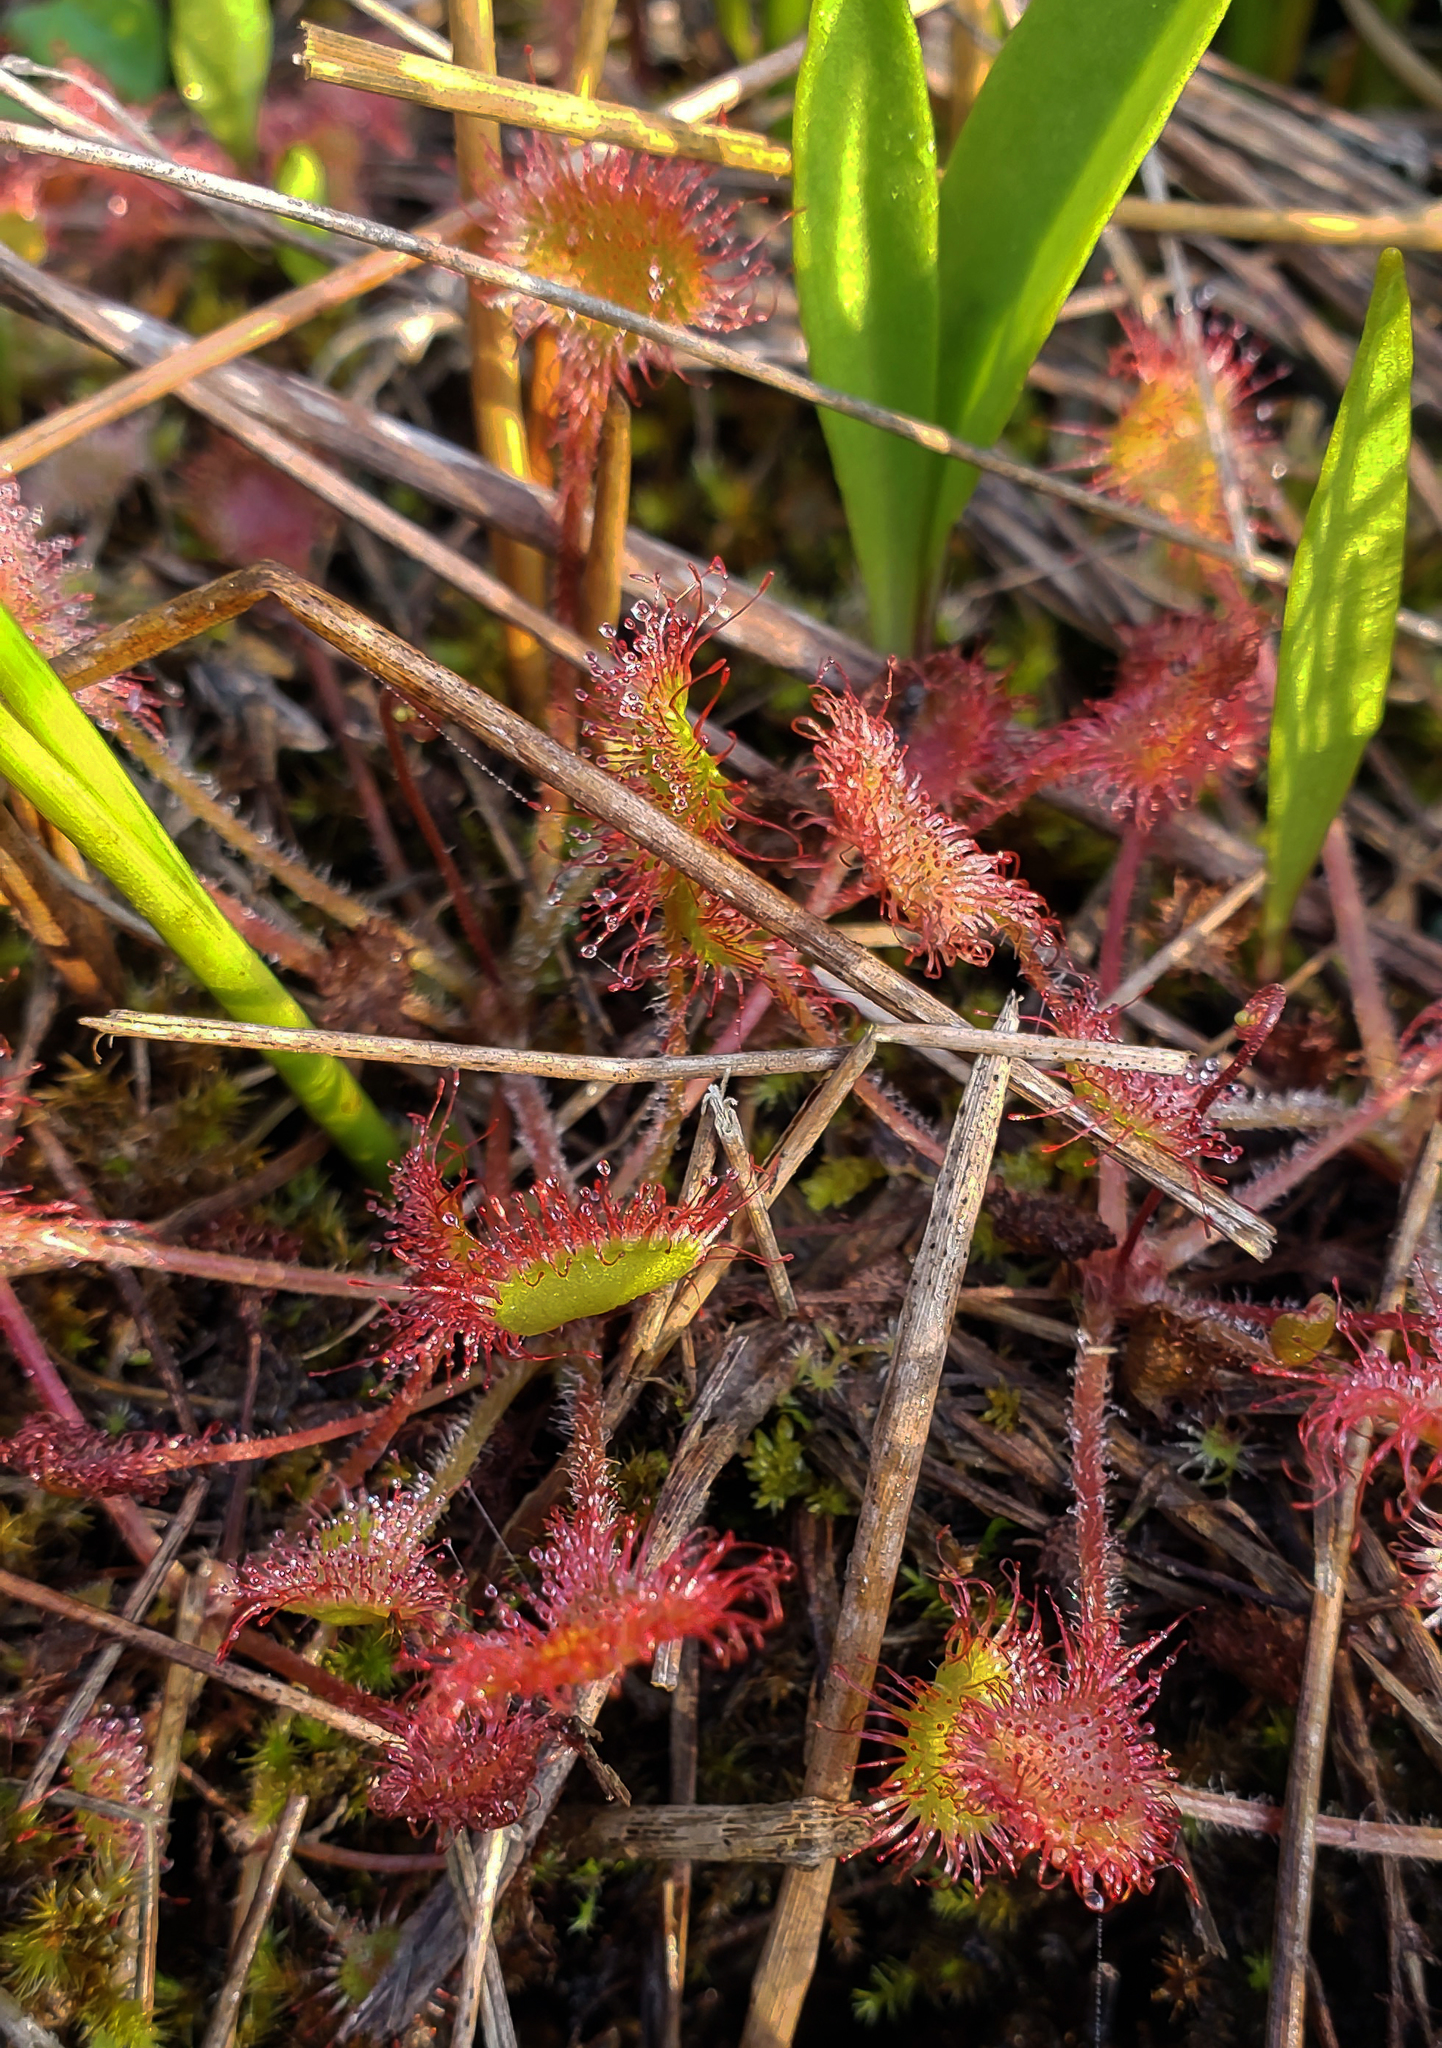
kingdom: Plantae
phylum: Tracheophyta
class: Magnoliopsida
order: Caryophyllales
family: Droseraceae
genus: Drosera
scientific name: Drosera rotundifolia
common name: Round-leaved sundew
